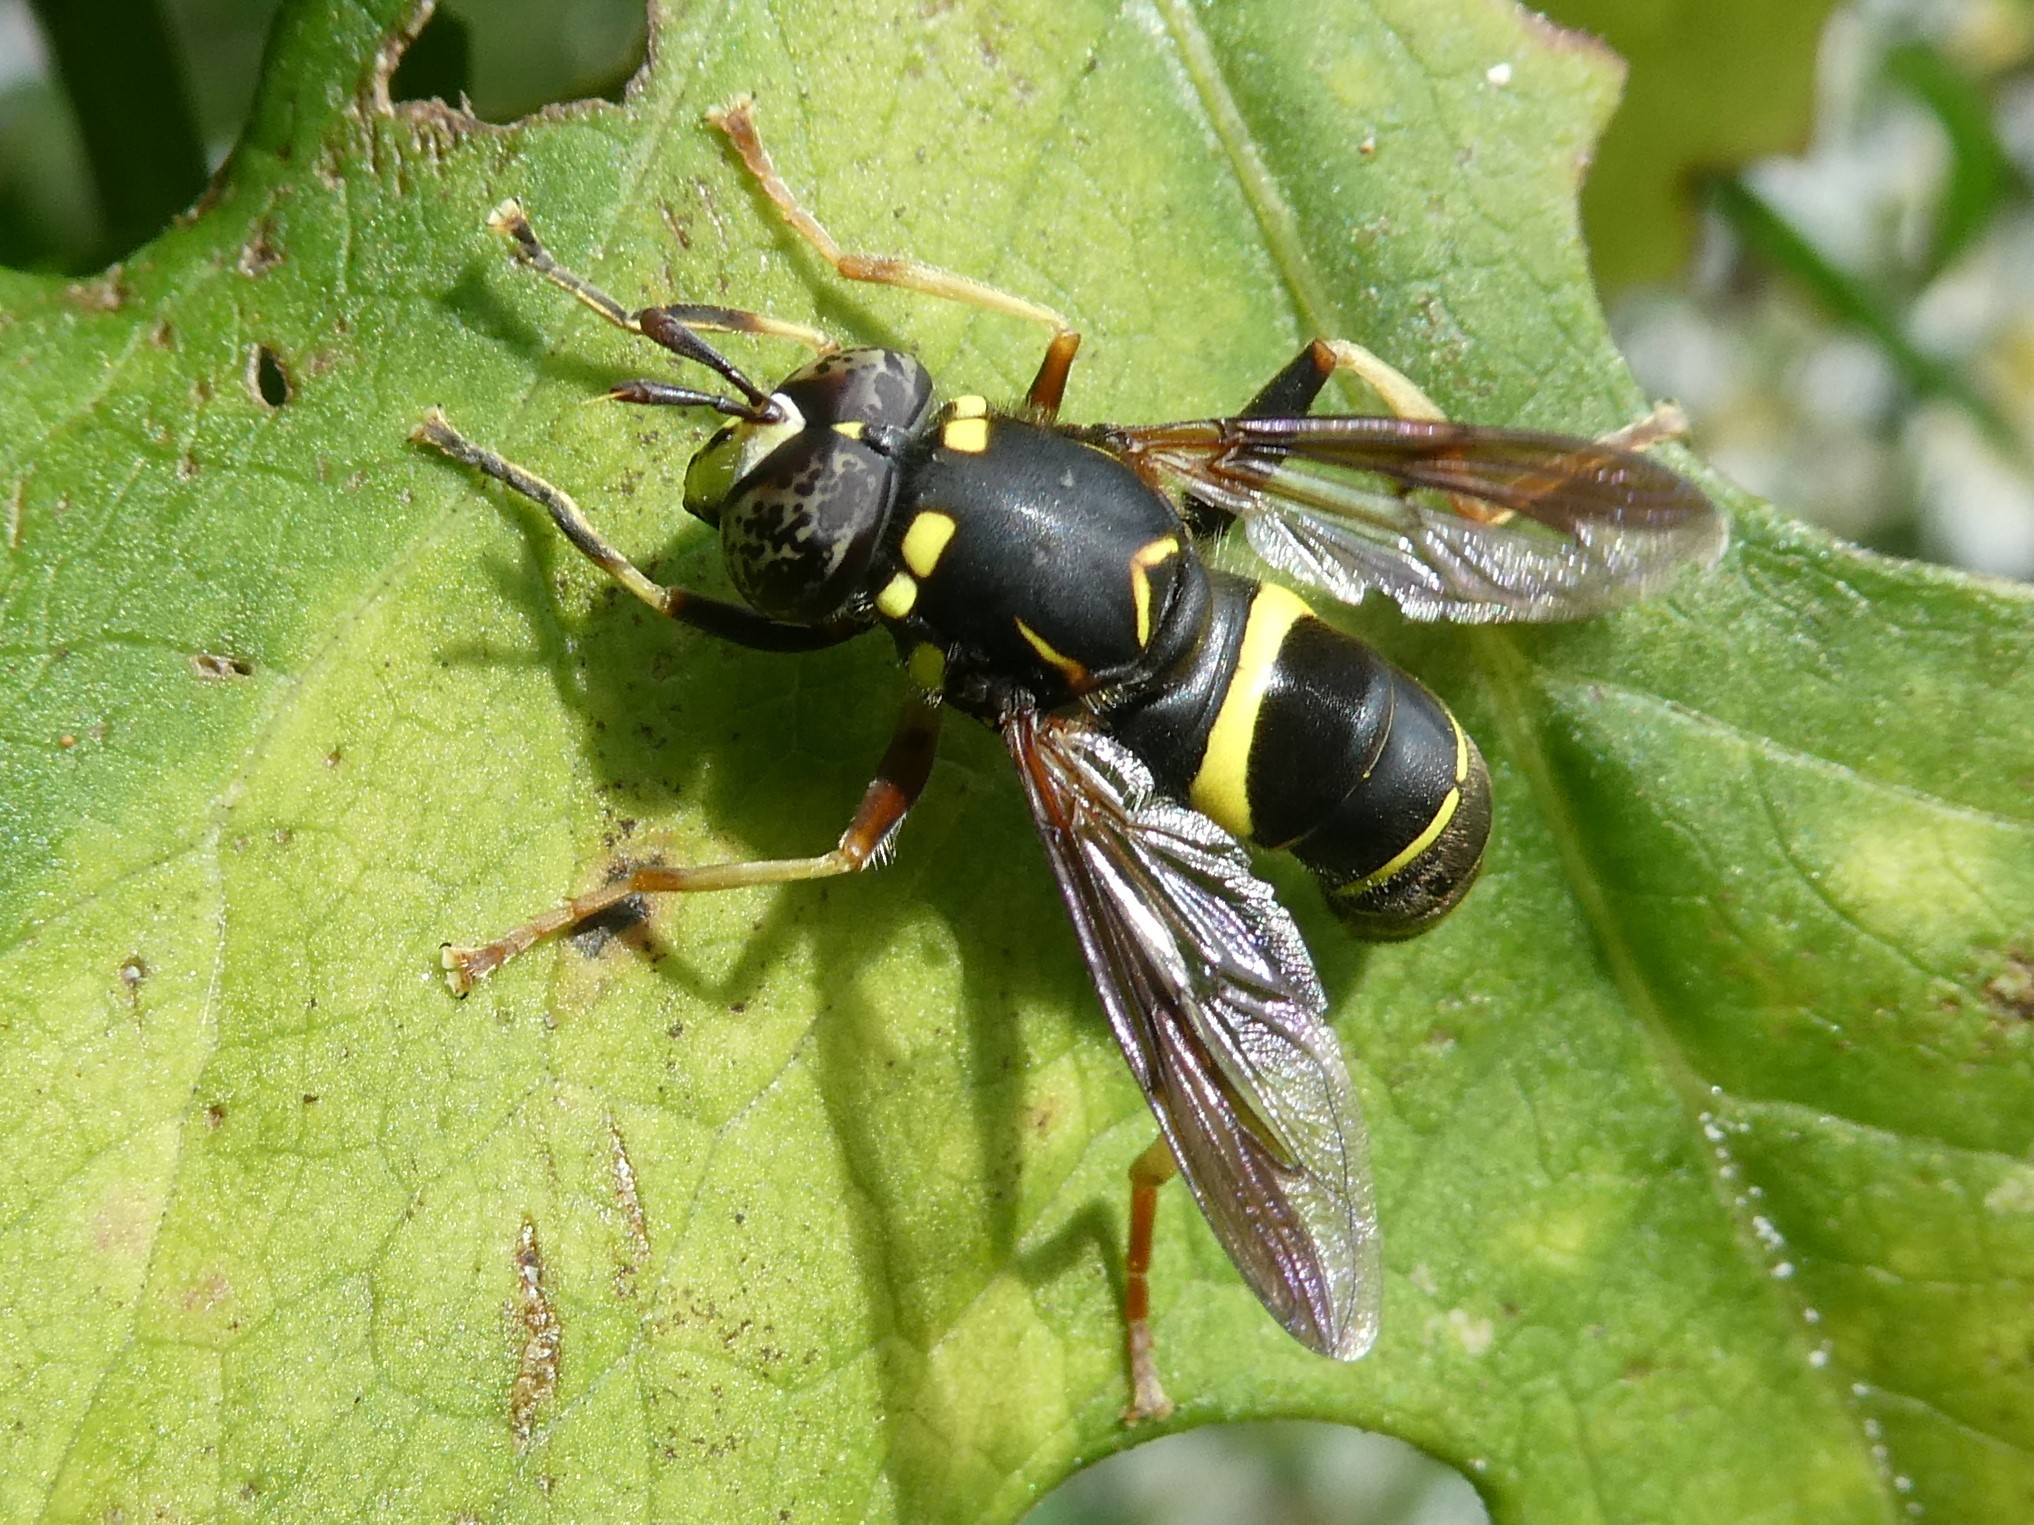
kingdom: Animalia
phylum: Arthropoda
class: Insecta
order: Diptera
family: Syrphidae
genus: Spilomyia
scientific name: Spilomyia sayi
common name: Four-lined hornet fly
